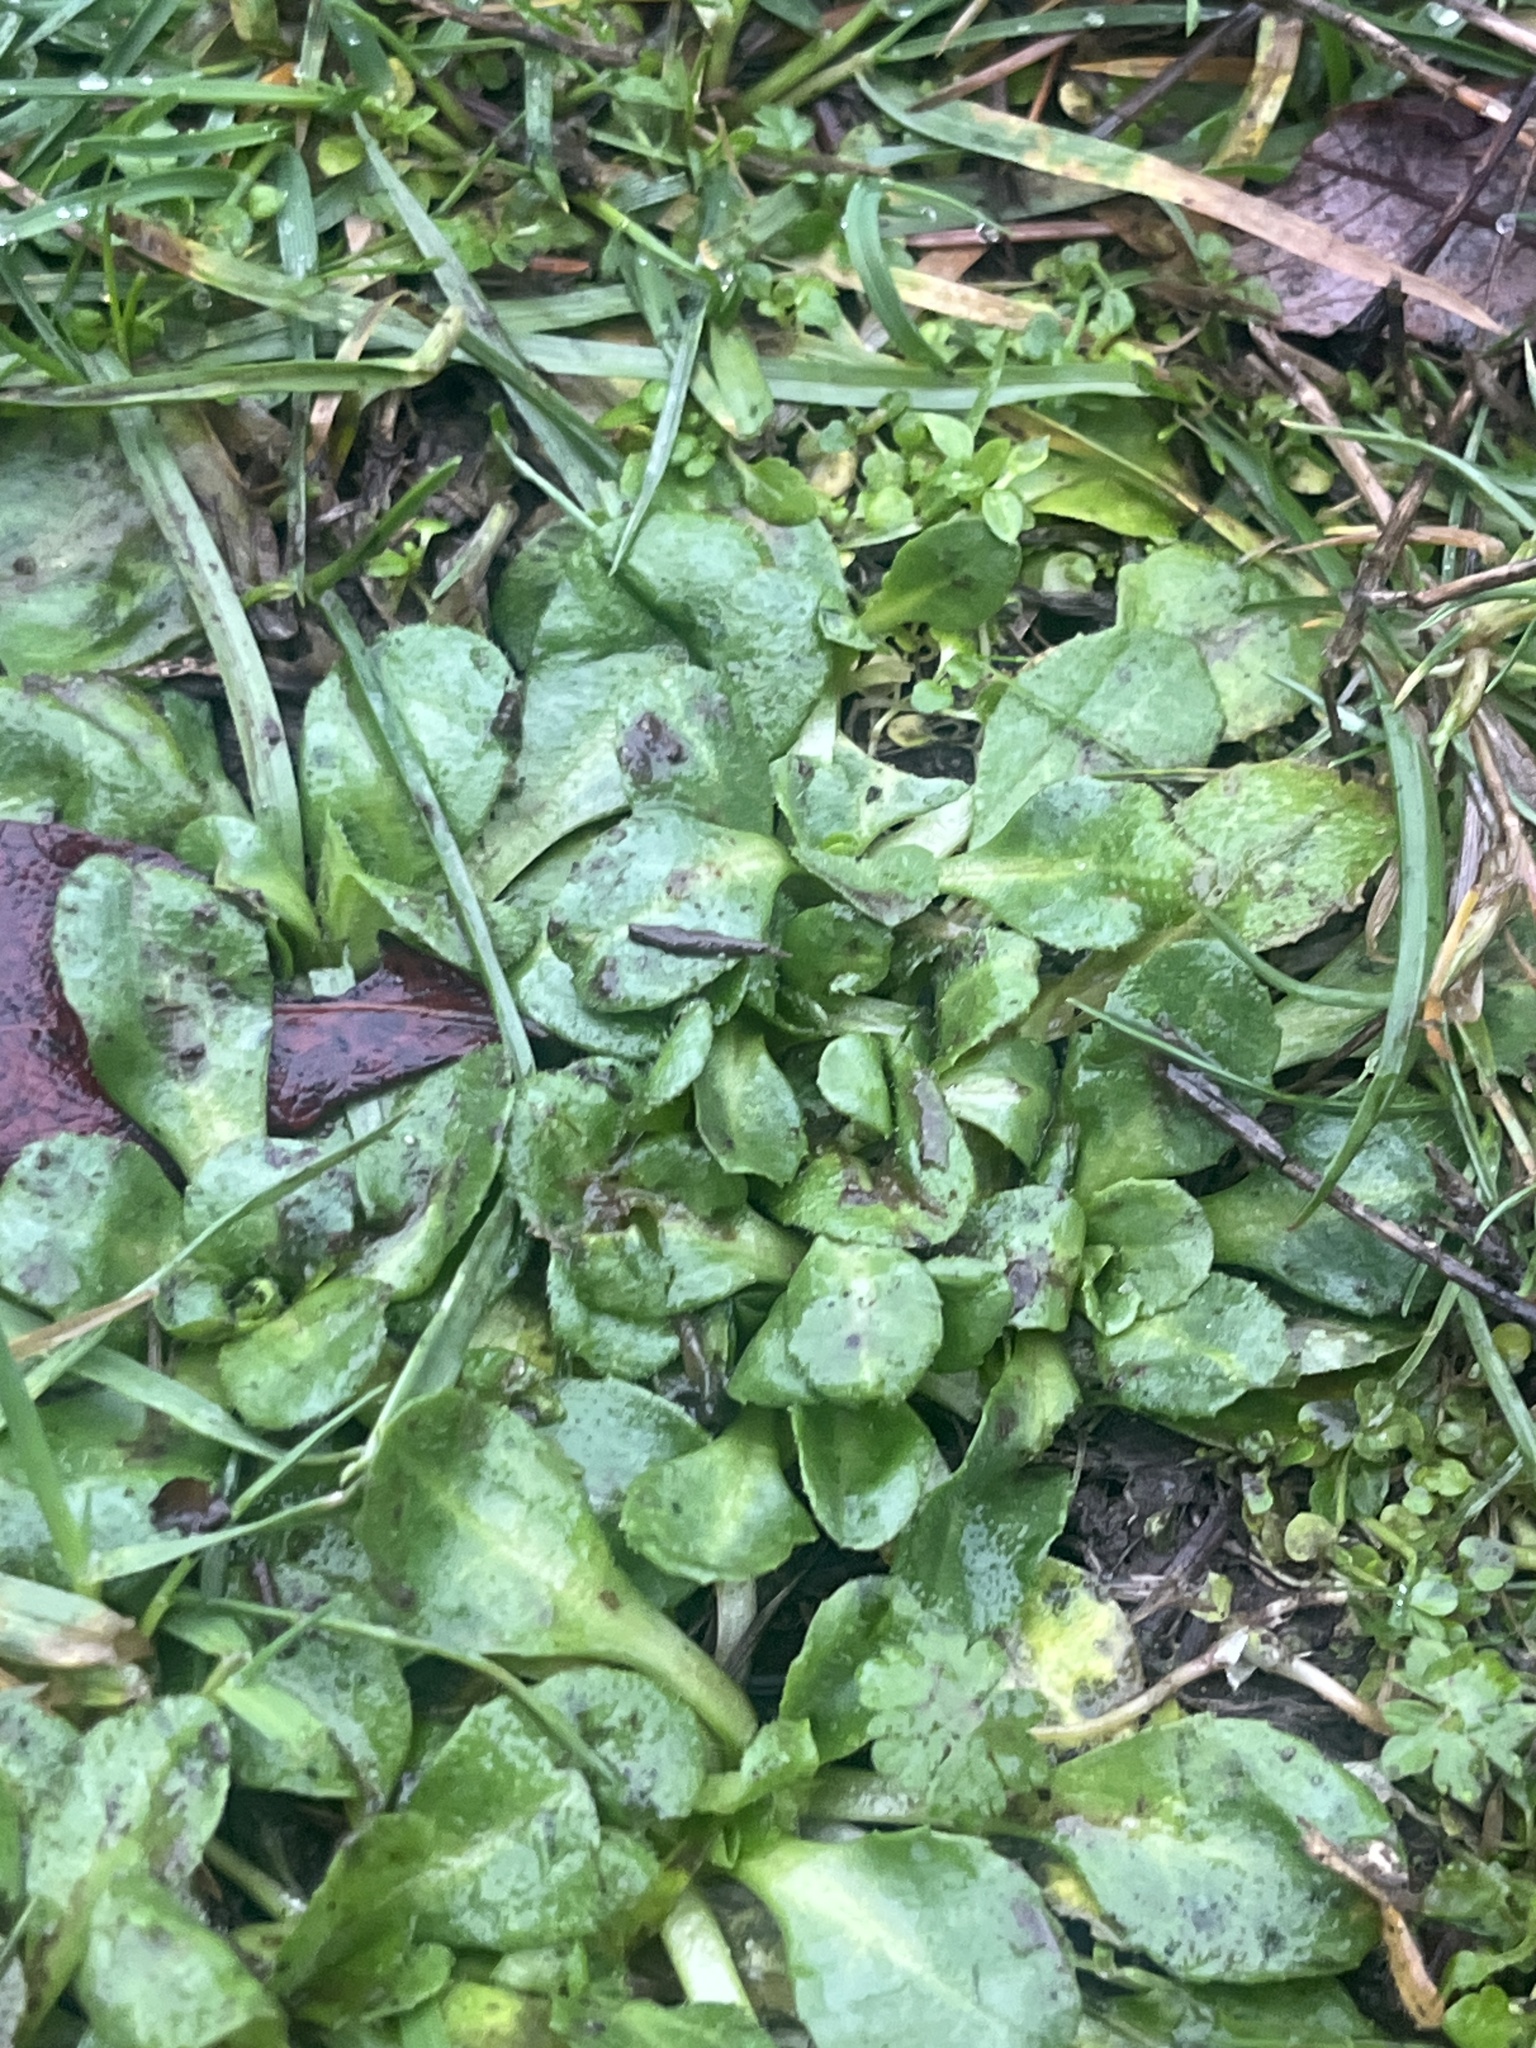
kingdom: Plantae
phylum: Tracheophyta
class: Magnoliopsida
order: Asterales
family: Asteraceae
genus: Bellis
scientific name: Bellis perennis
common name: Lawndaisy
